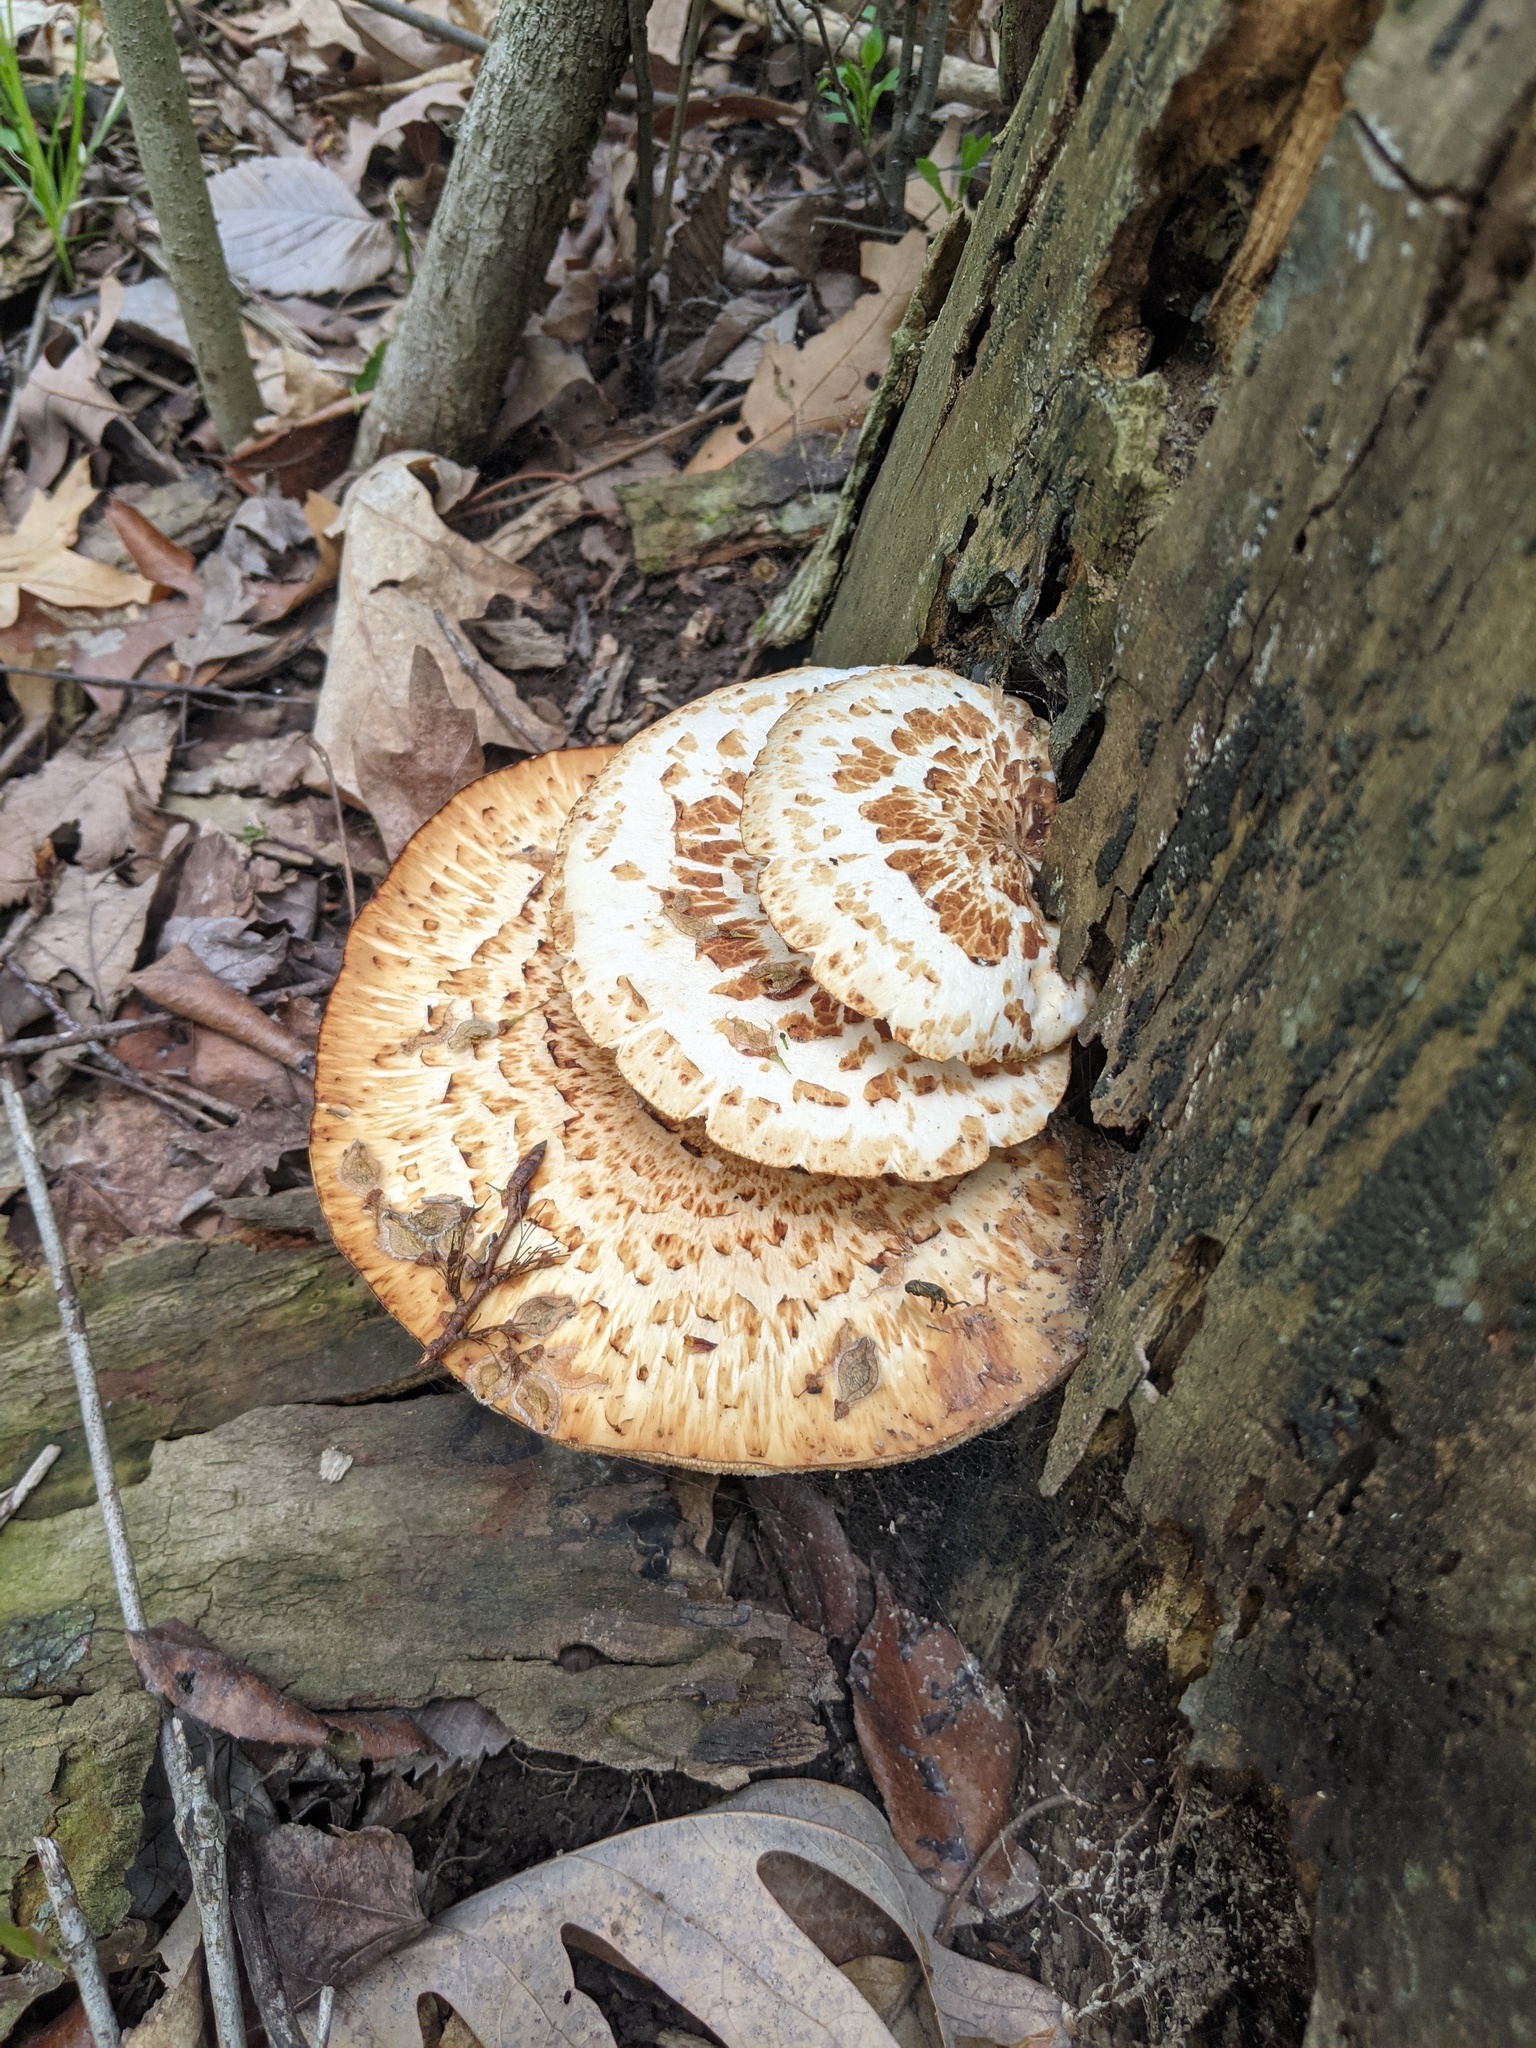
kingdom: Fungi
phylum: Basidiomycota
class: Agaricomycetes
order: Polyporales
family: Polyporaceae
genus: Cerioporus
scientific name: Cerioporus squamosus
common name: Dryad's saddle
